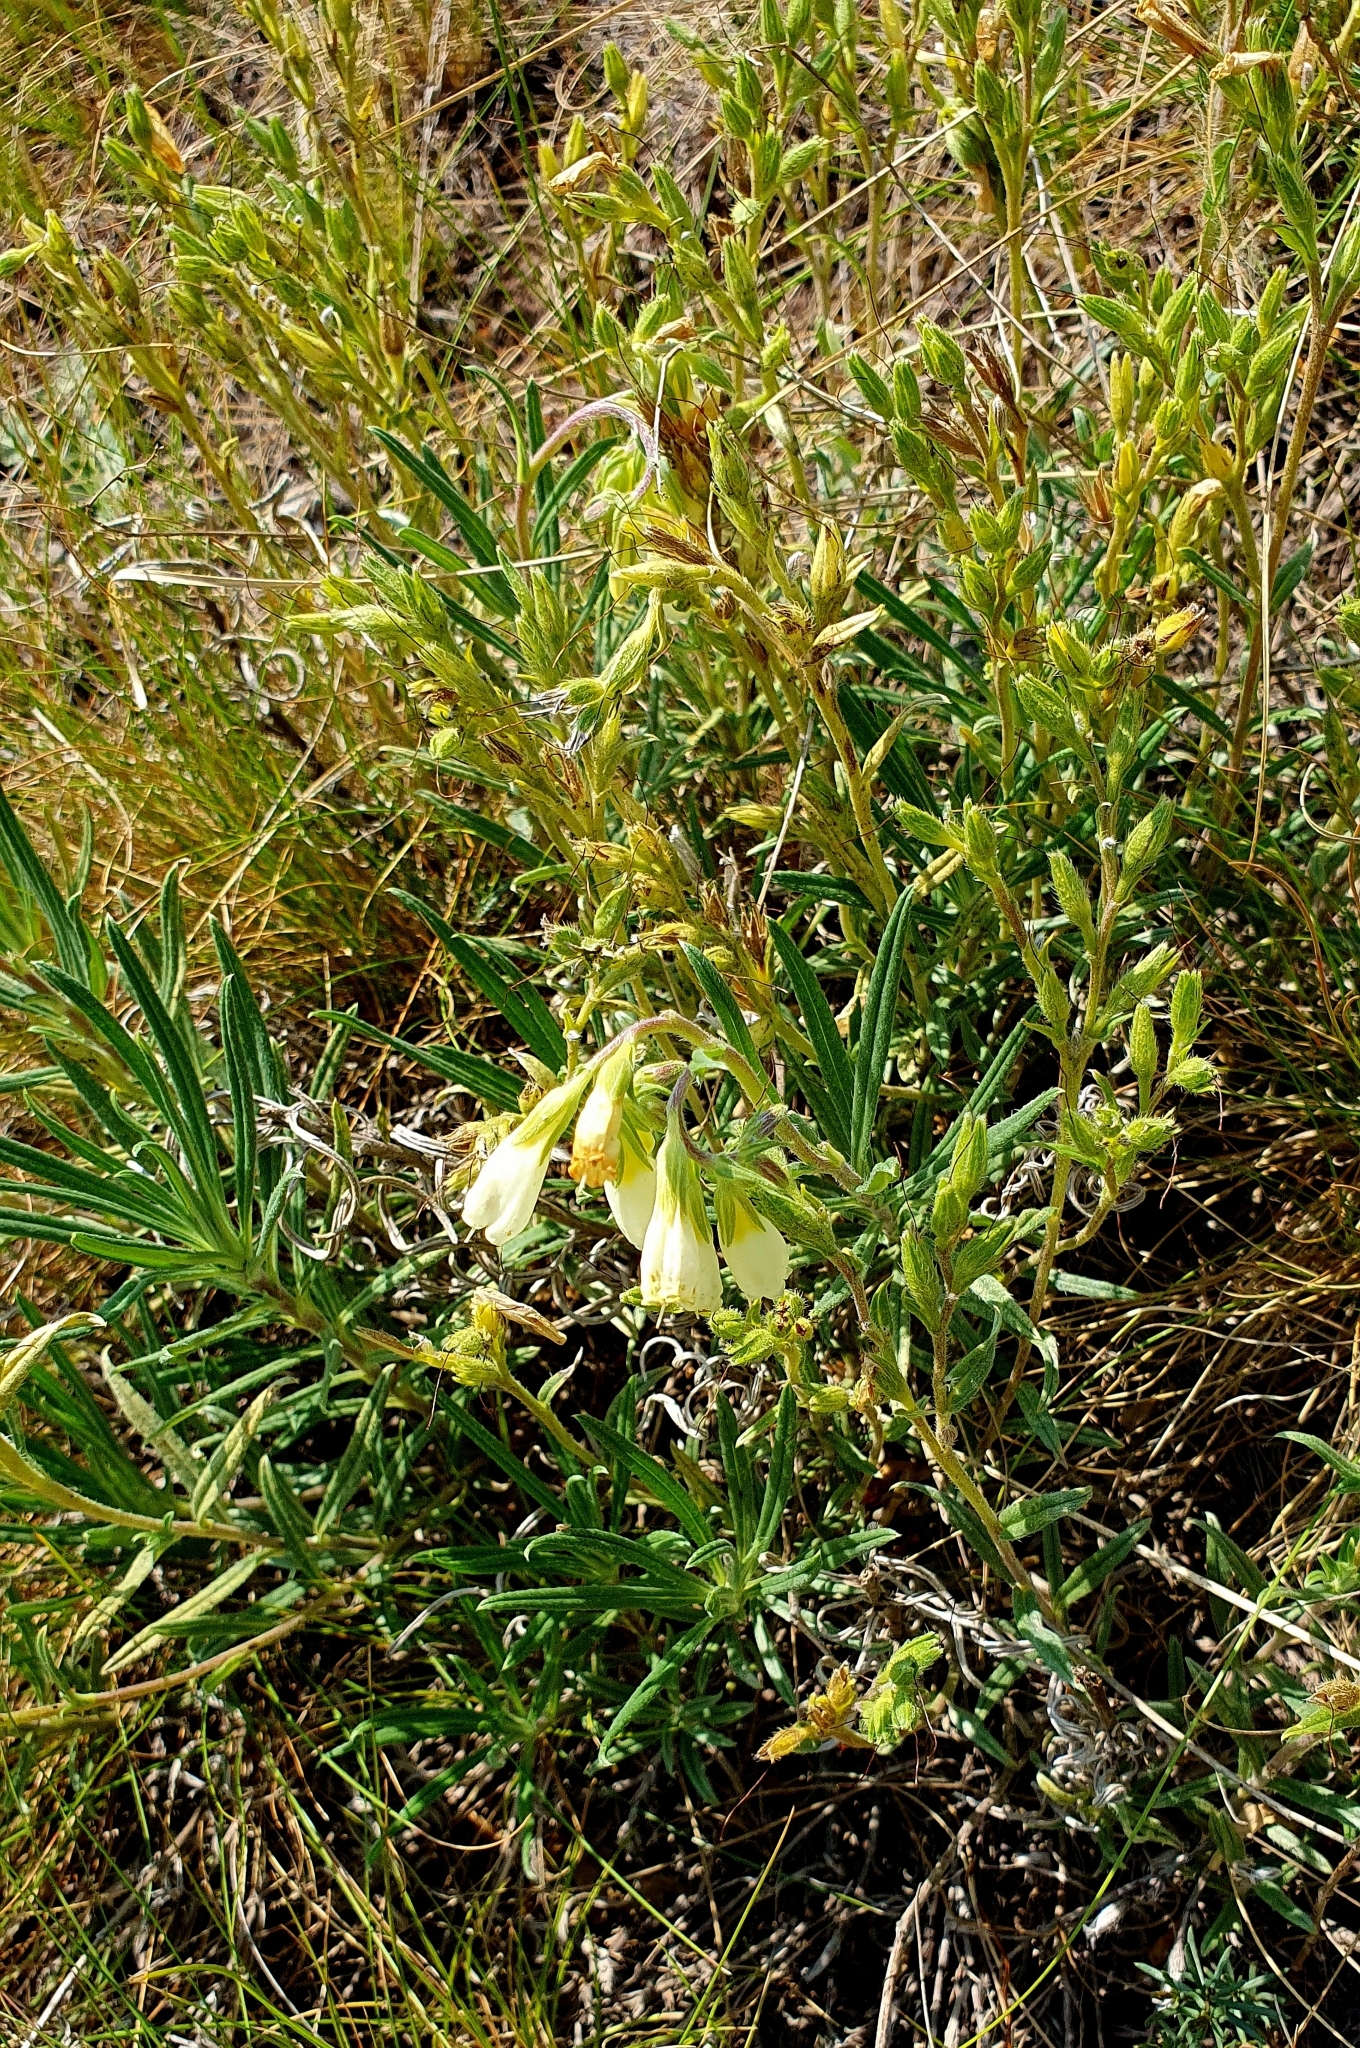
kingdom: Plantae
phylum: Tracheophyta
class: Magnoliopsida
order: Boraginales
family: Boraginaceae
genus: Onosma
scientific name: Onosma simplicissima
